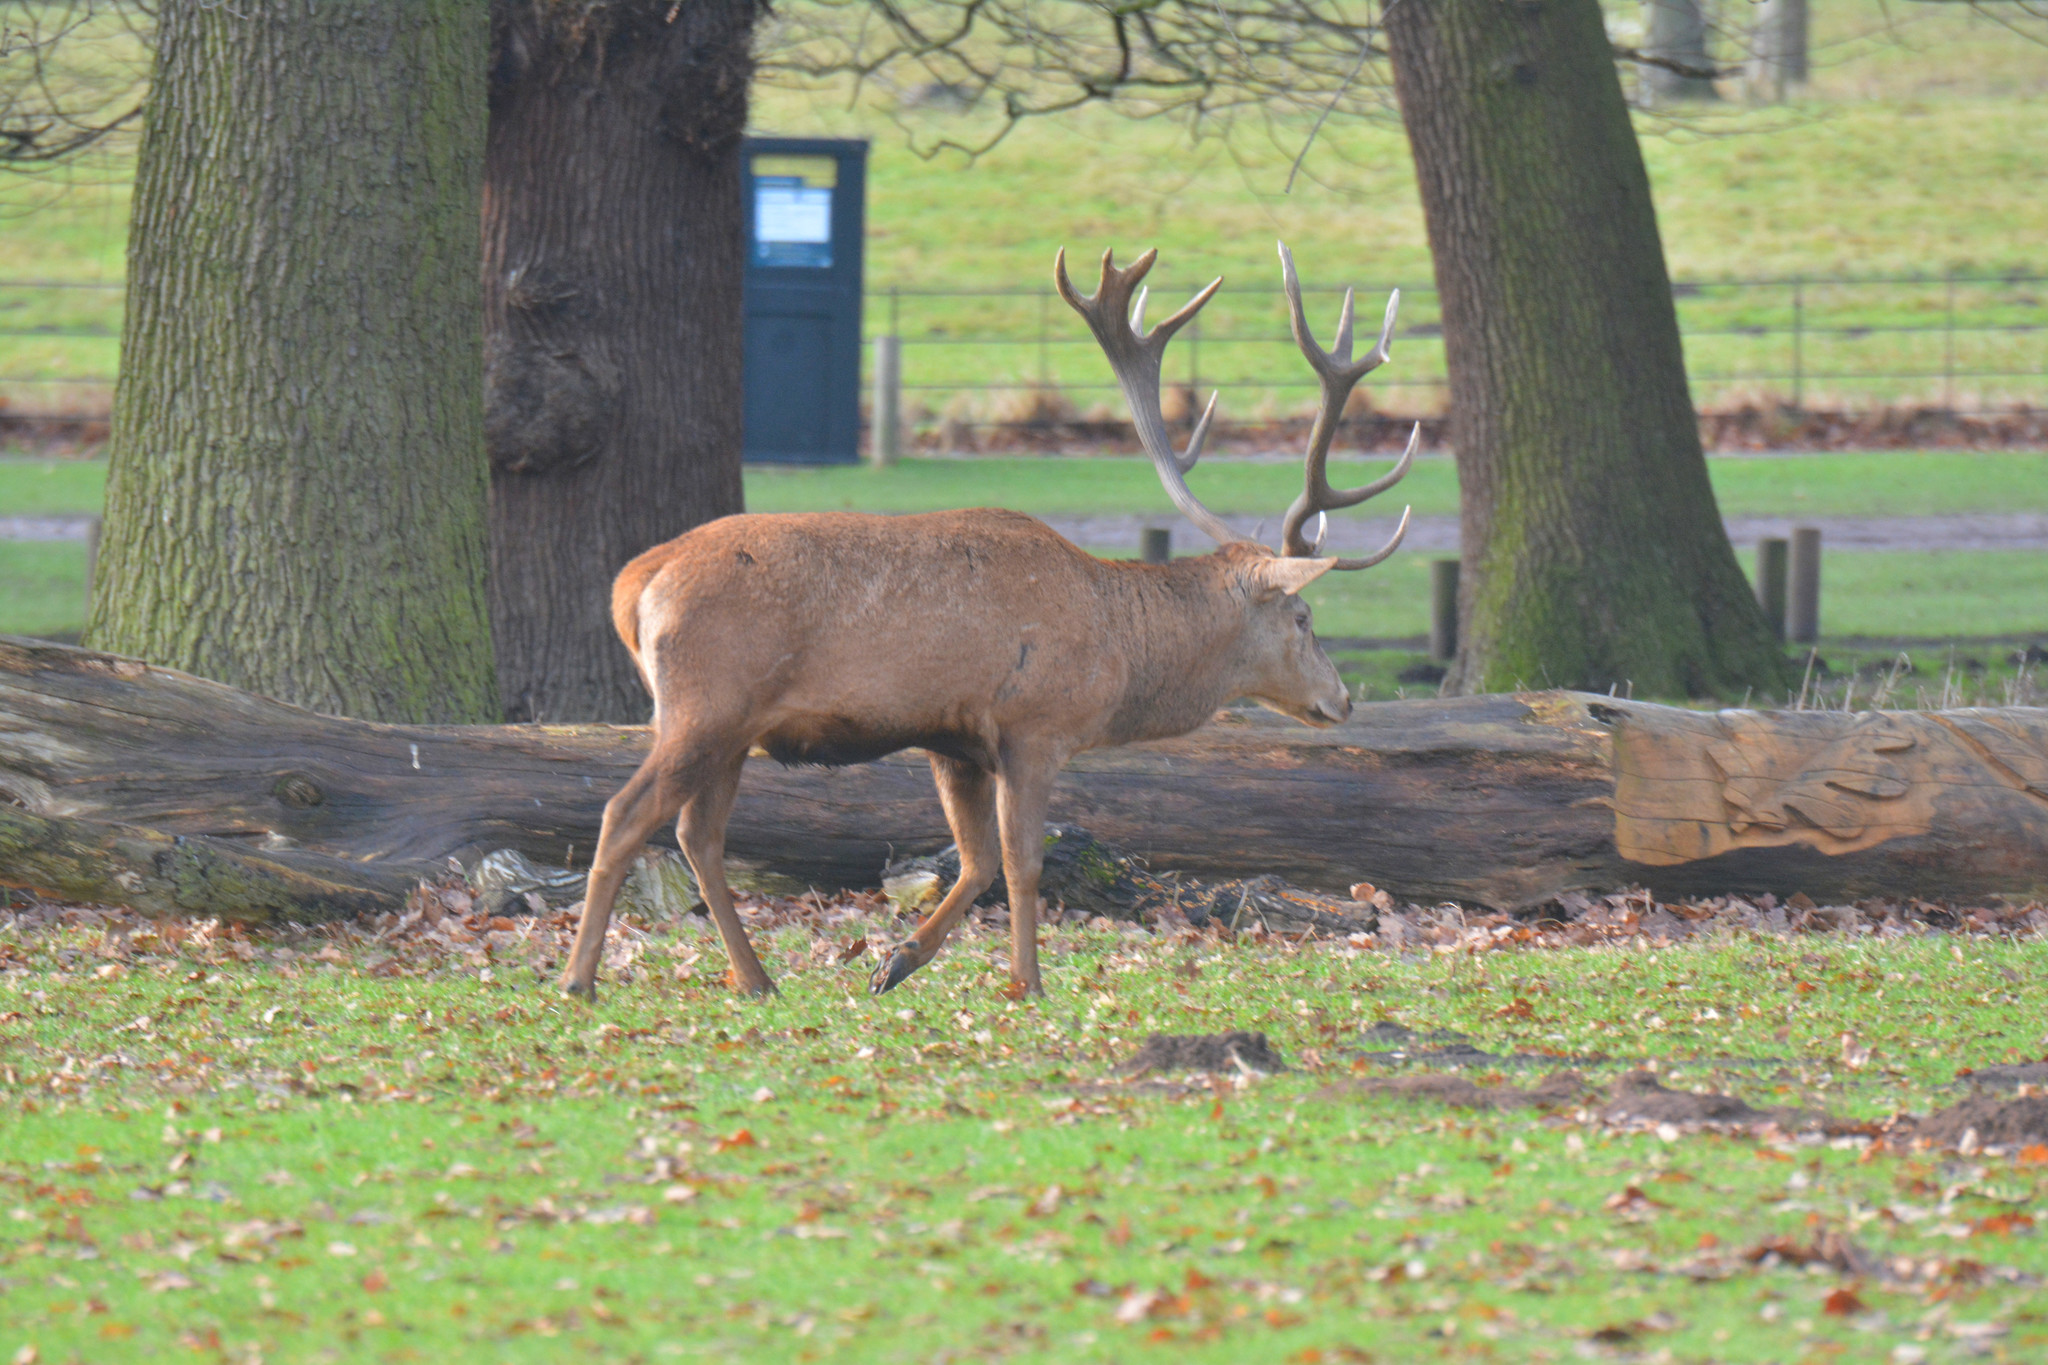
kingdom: Animalia
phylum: Chordata
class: Mammalia
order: Artiodactyla
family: Cervidae
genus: Cervus
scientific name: Cervus elaphus
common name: Red deer
